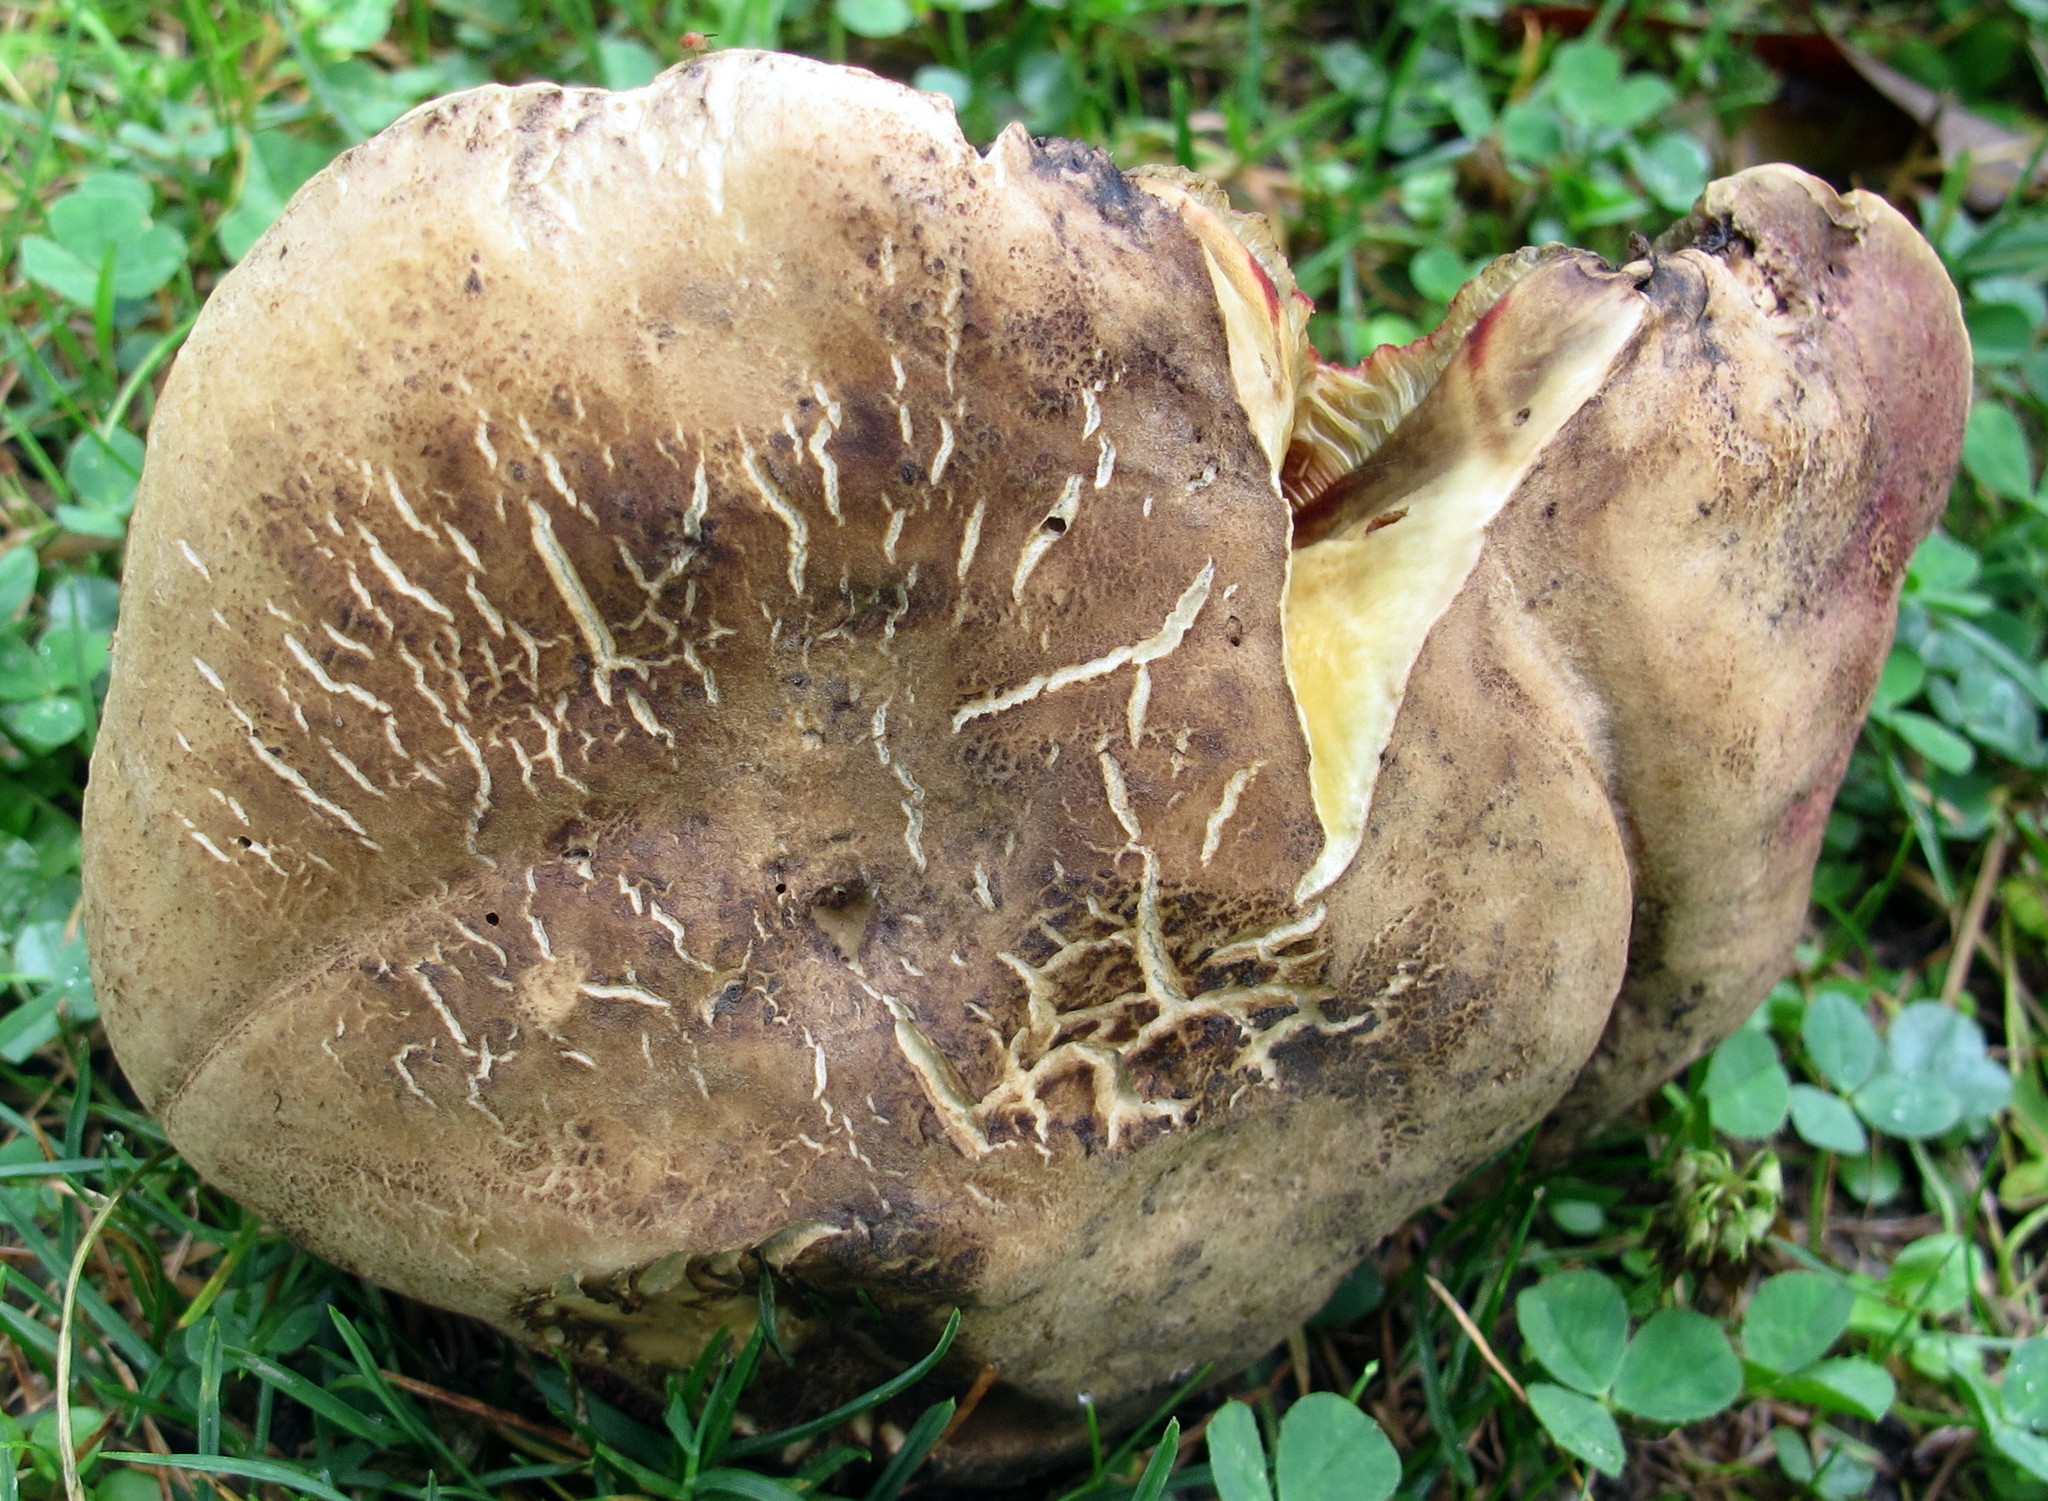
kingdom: Fungi
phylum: Basidiomycota
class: Agaricomycetes
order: Boletales
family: Boletaceae
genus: Rubroboletus
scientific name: Rubroboletus rhodosanguineus
